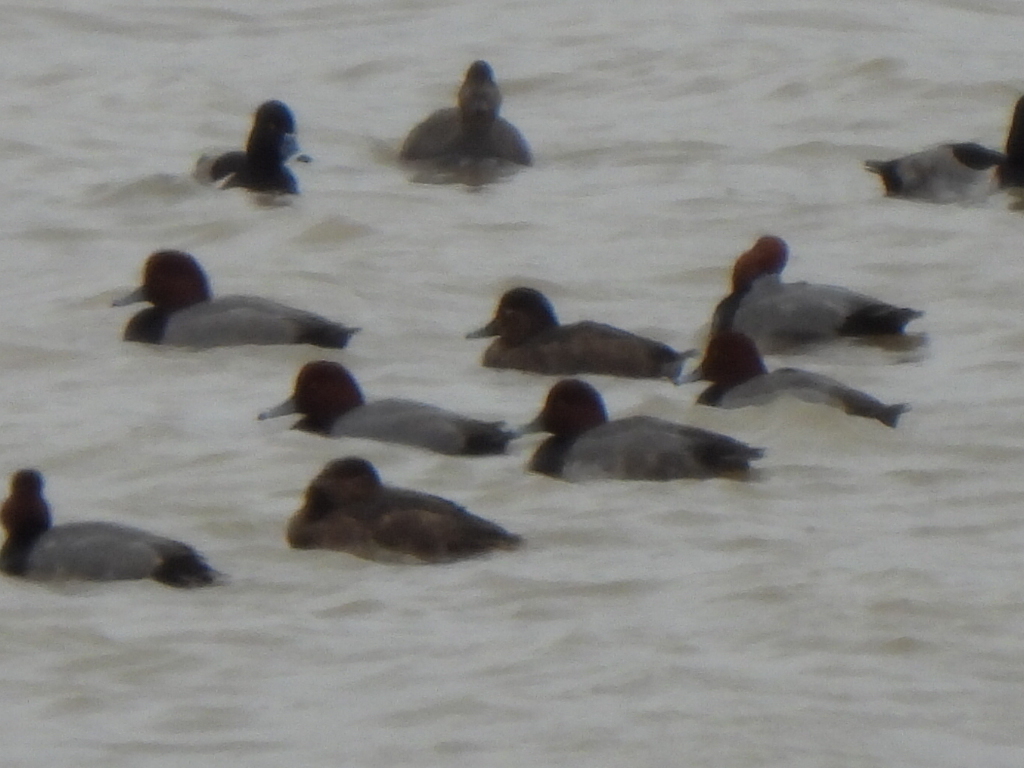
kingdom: Animalia
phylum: Chordata
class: Aves
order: Anseriformes
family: Anatidae
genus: Aythya
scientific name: Aythya americana
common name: Redhead
